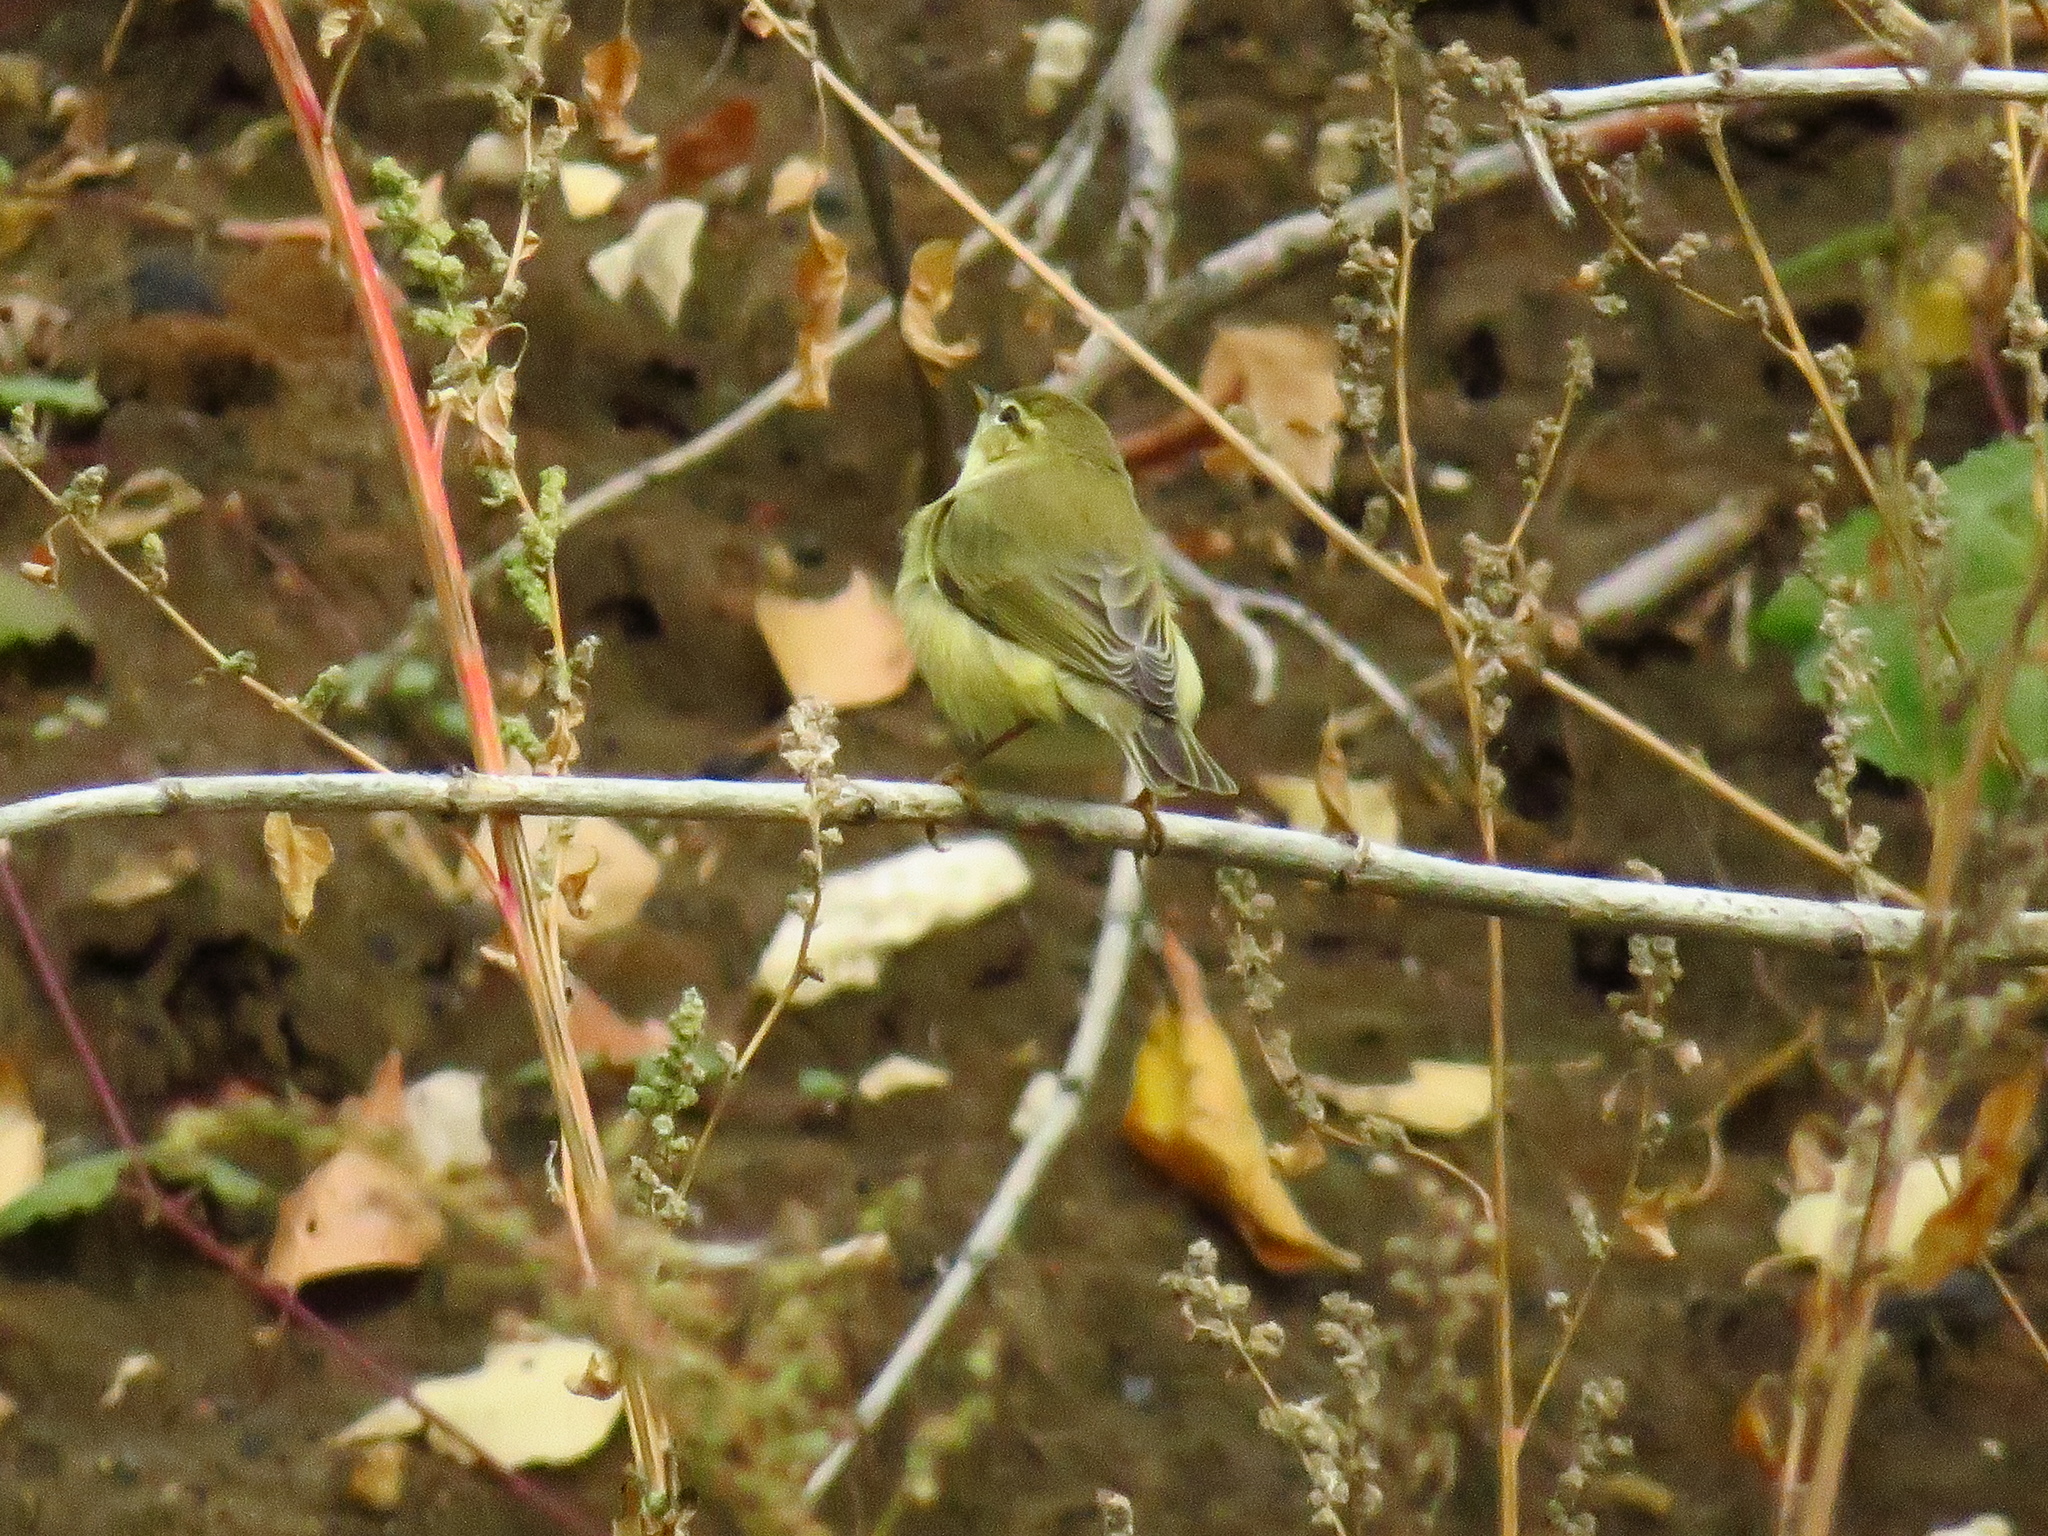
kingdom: Animalia
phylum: Chordata
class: Aves
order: Passeriformes
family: Phylloscopidae
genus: Phylloscopus
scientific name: Phylloscopus trochilus
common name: Willow warbler
